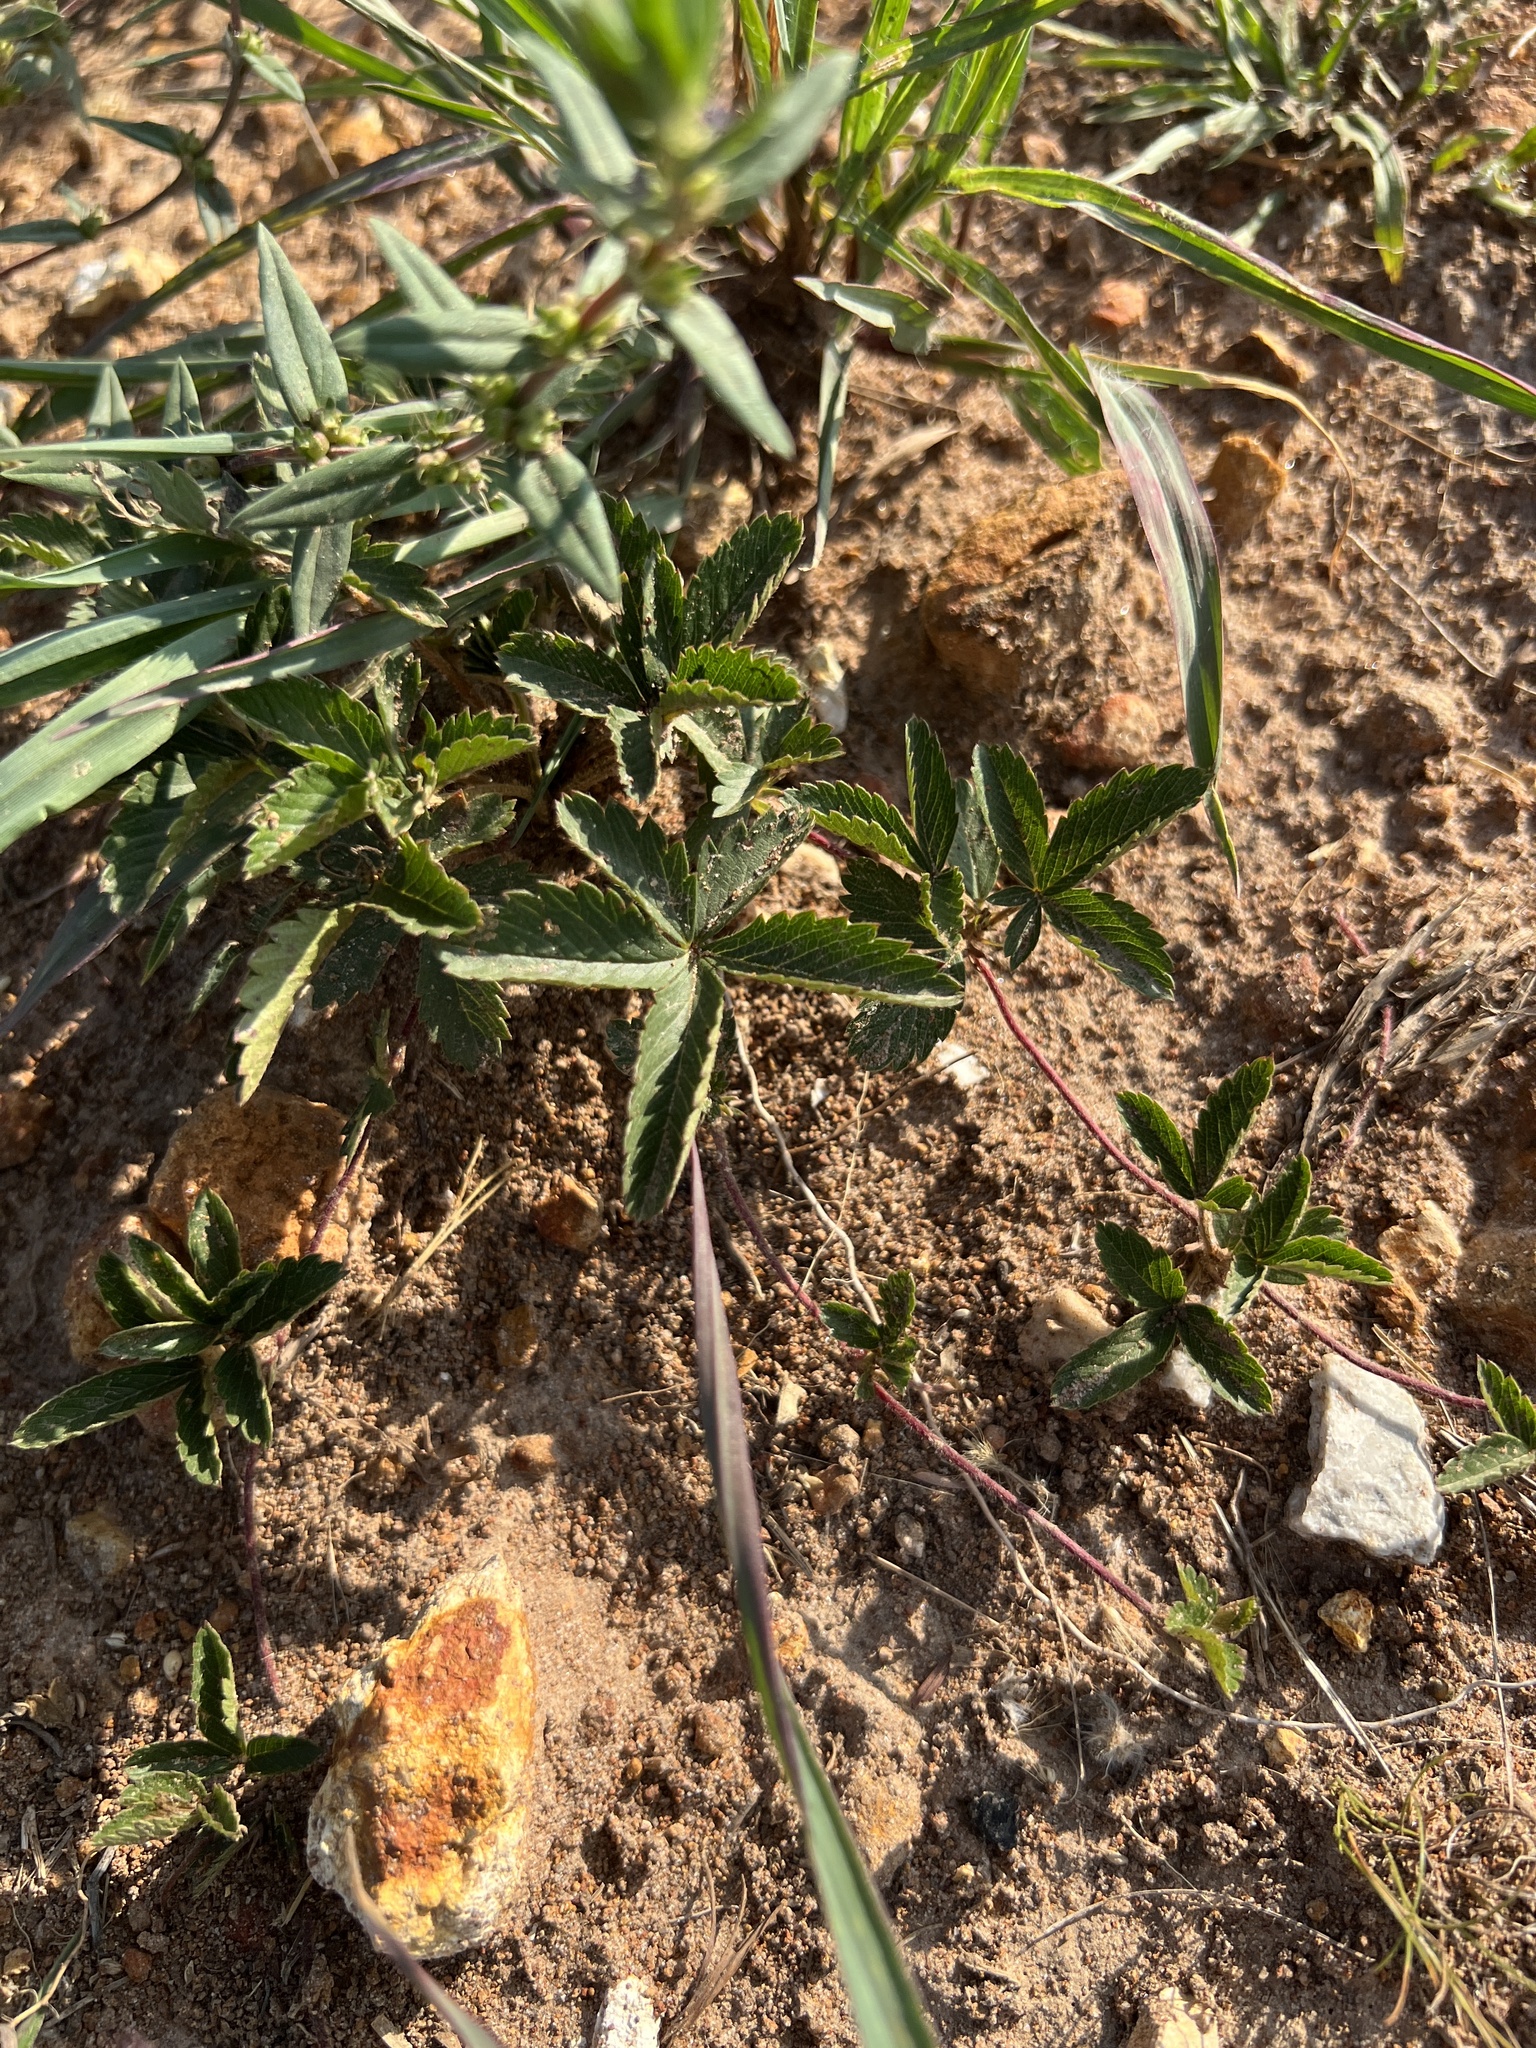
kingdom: Plantae
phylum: Tracheophyta
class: Magnoliopsida
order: Rosales
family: Rosaceae
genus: Potentilla
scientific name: Potentilla simplex
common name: Old field cinquefoil
